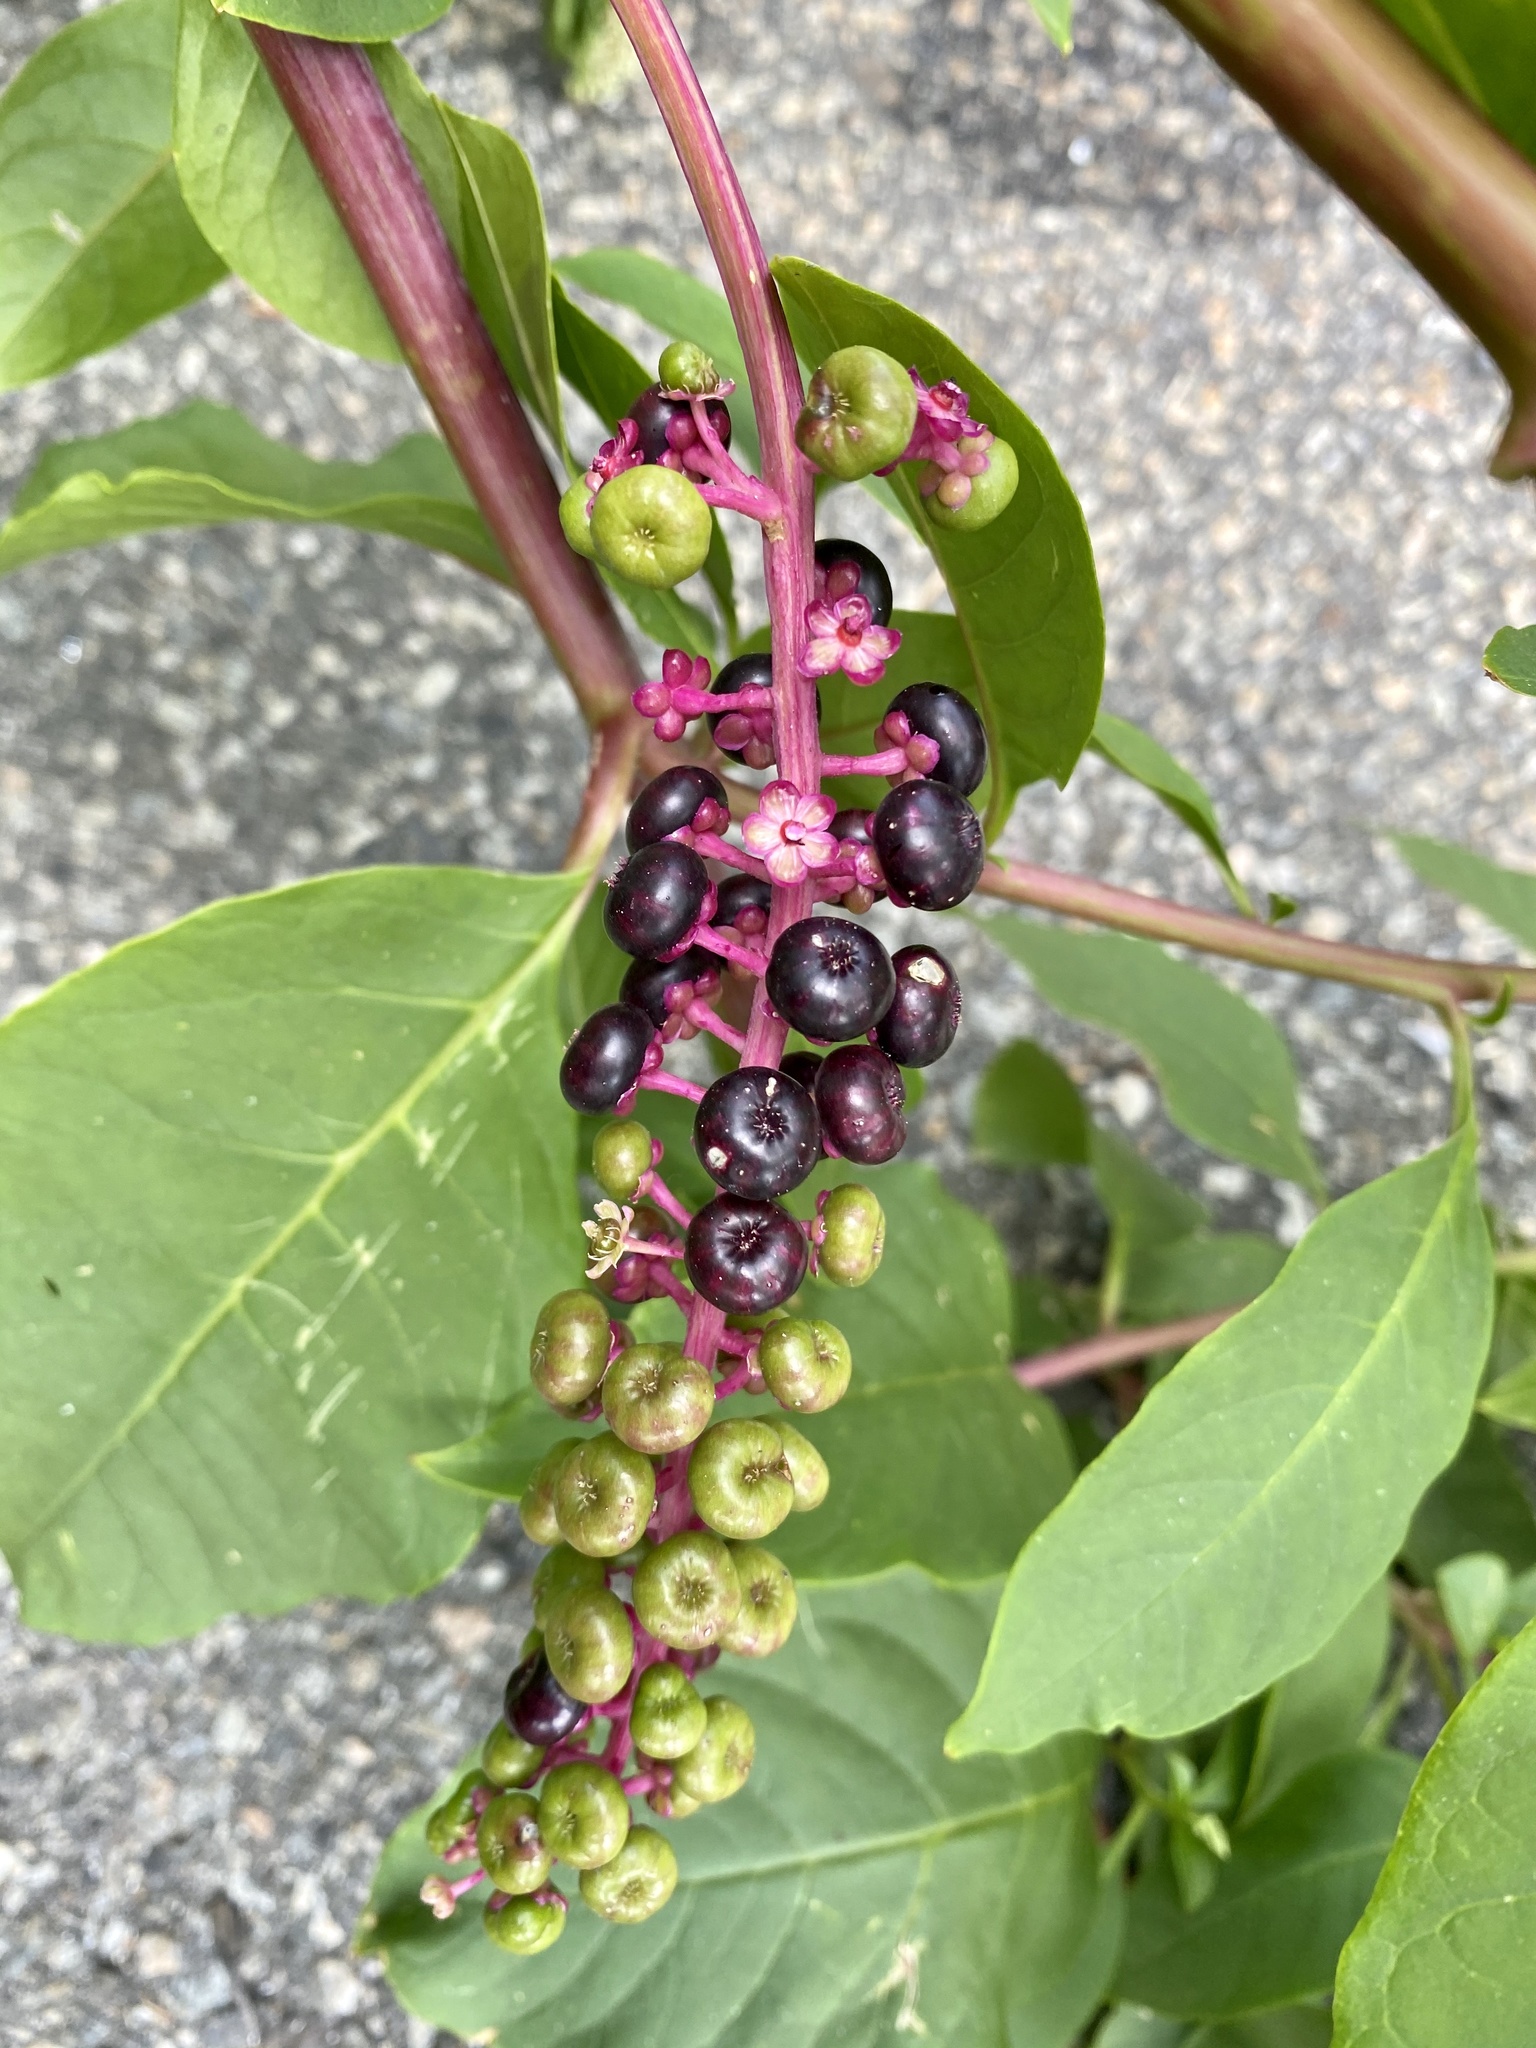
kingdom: Plantae
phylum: Tracheophyta
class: Magnoliopsida
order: Caryophyllales
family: Phytolaccaceae
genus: Phytolacca
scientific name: Phytolacca americana
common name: American pokeweed
